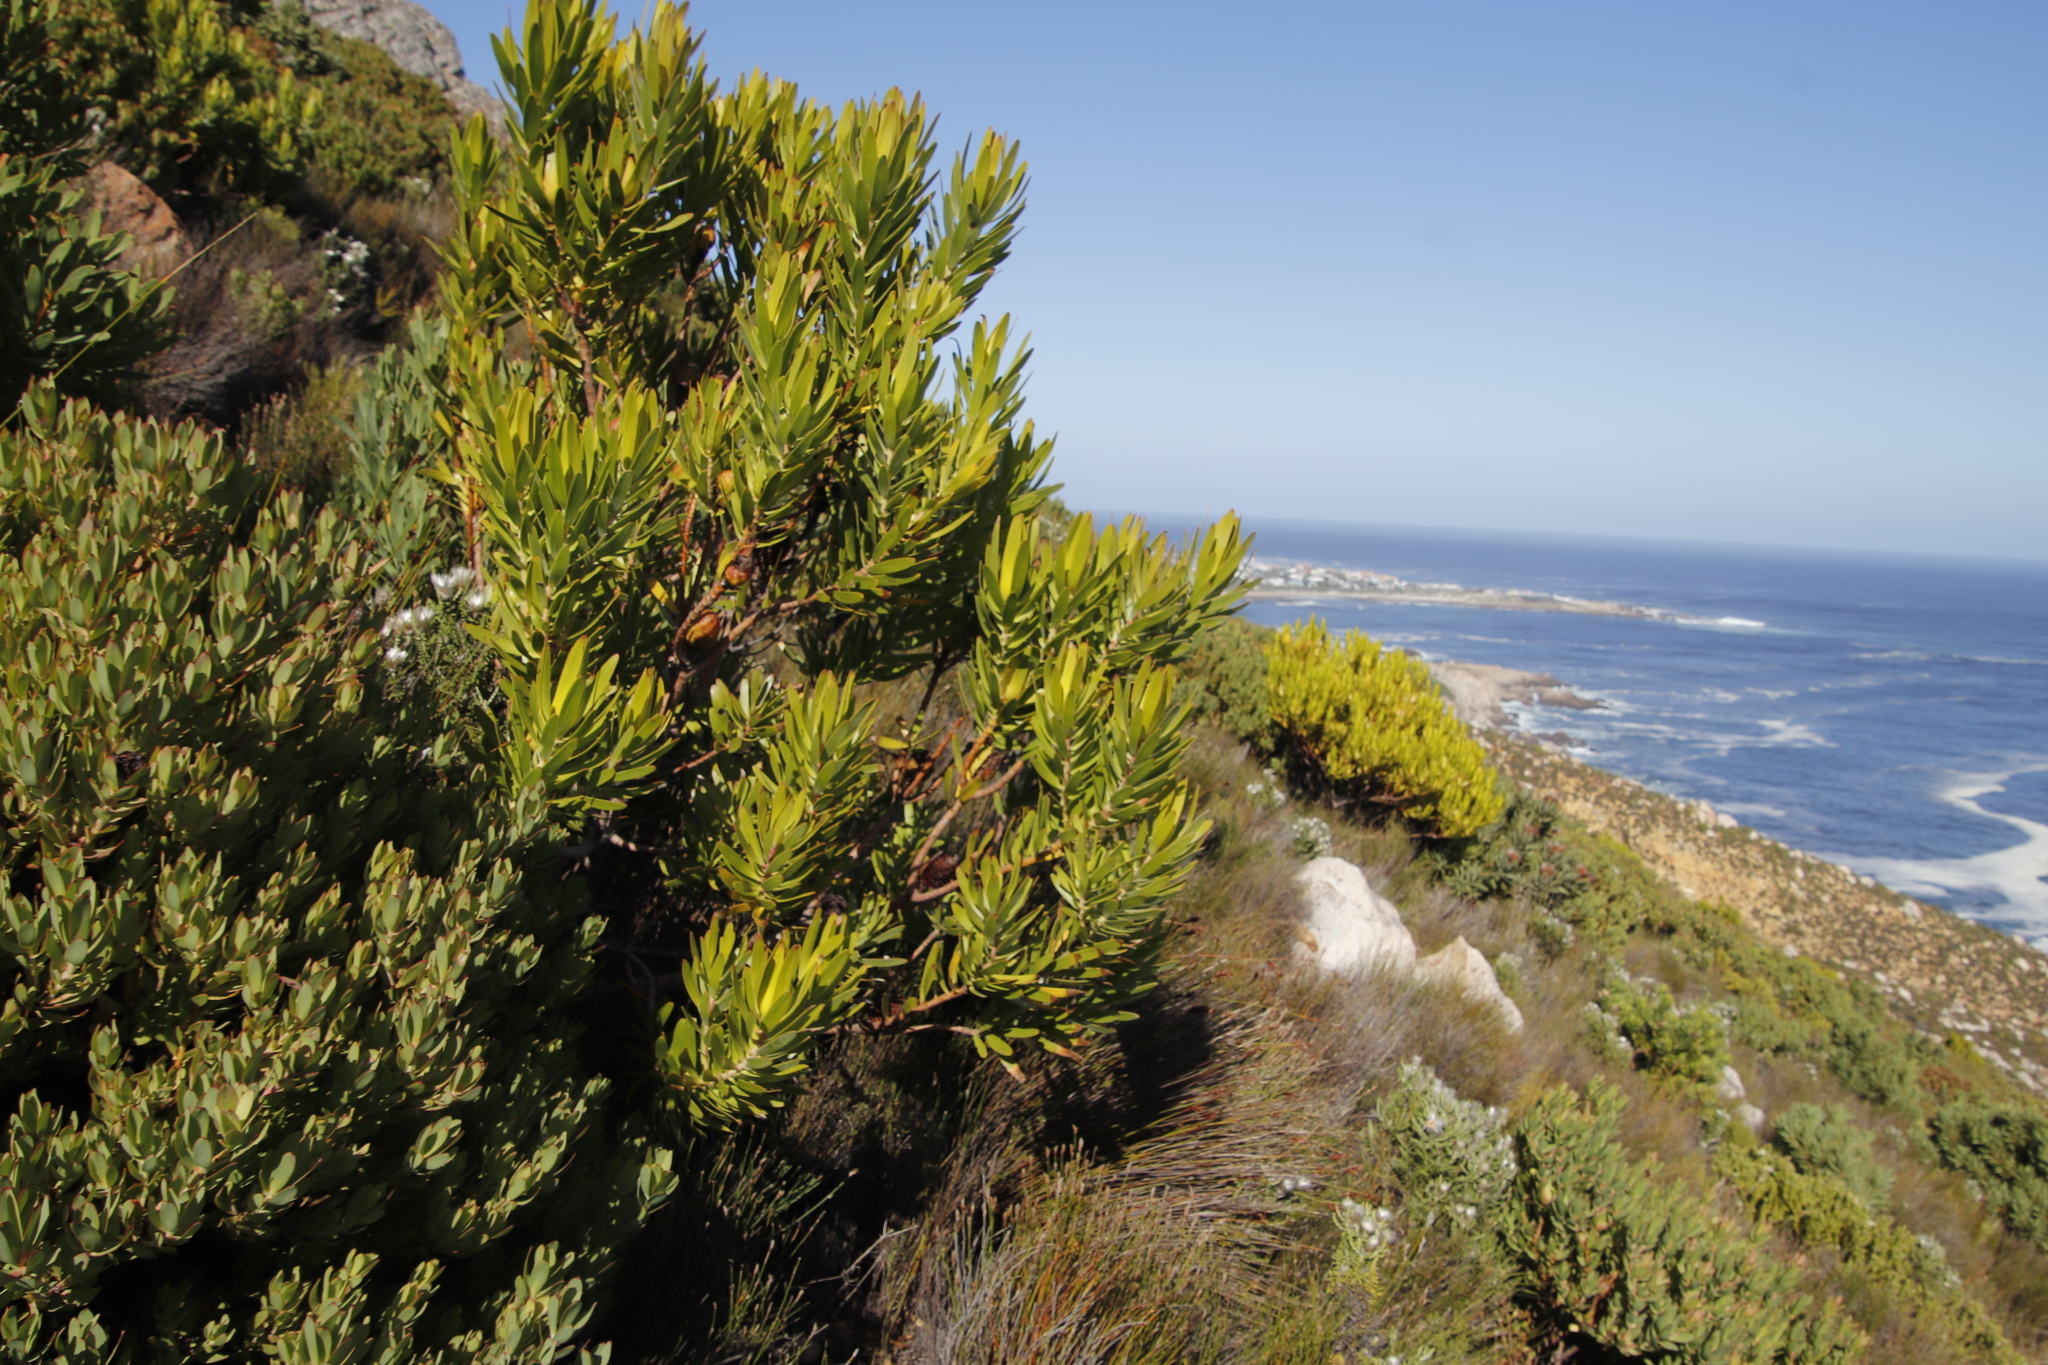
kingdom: Plantae
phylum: Tracheophyta
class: Magnoliopsida
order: Proteales
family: Proteaceae
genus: Leucadendron
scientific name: Leucadendron laureolum
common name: Golden sunshinebush
